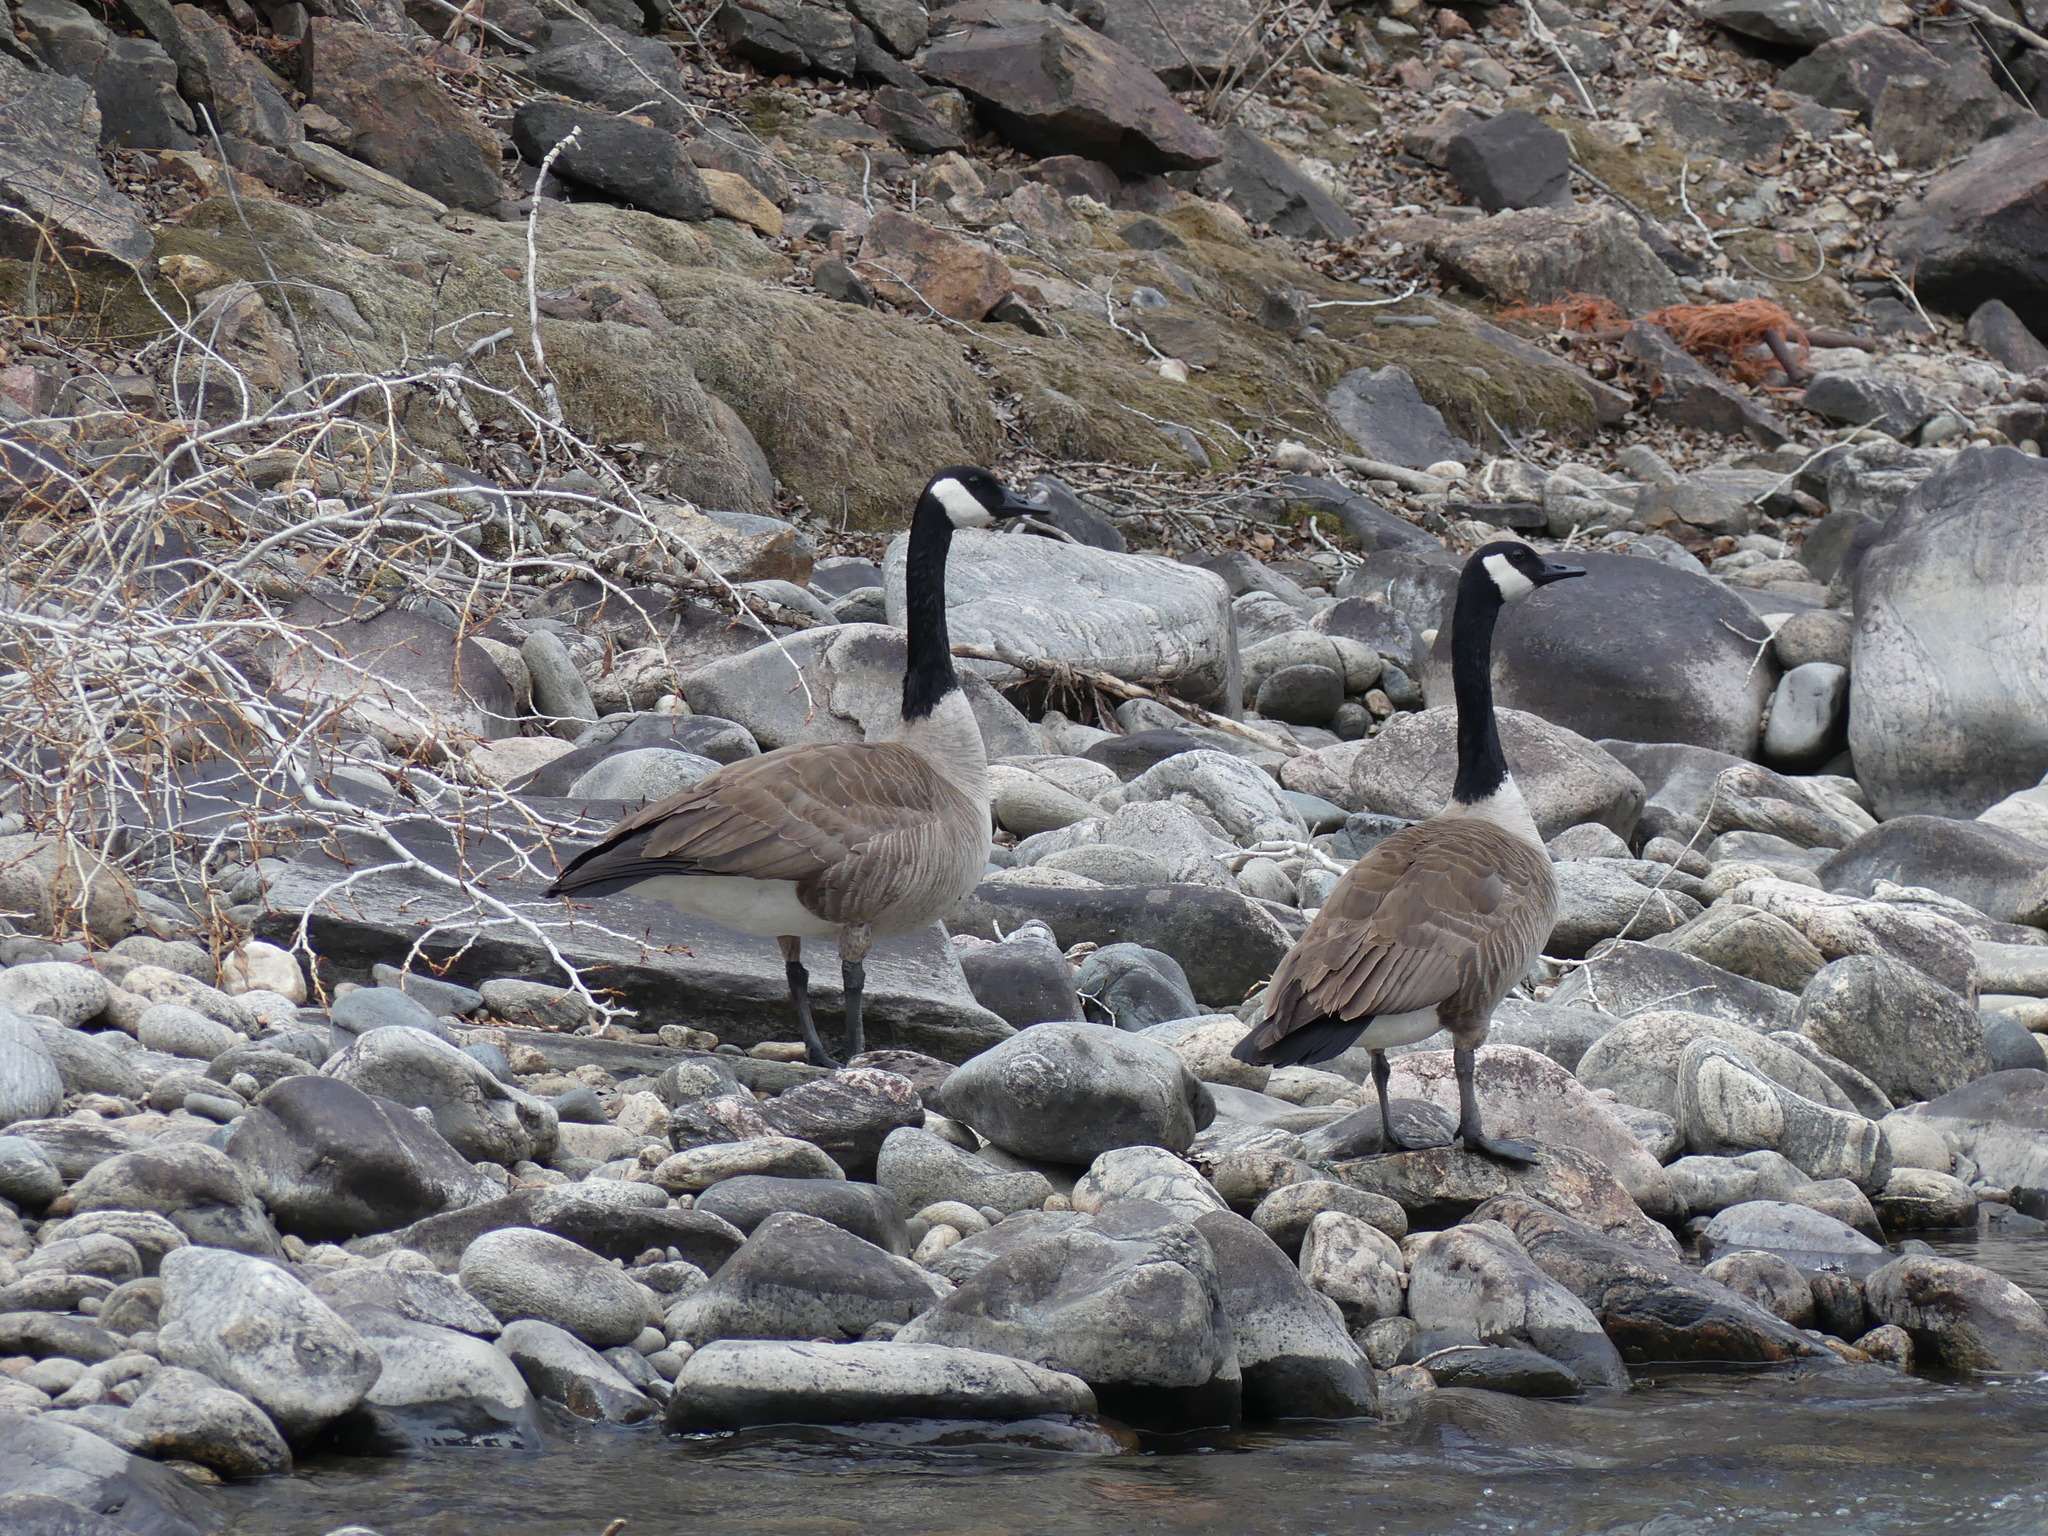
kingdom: Animalia
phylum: Chordata
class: Aves
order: Anseriformes
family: Anatidae
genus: Branta
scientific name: Branta canadensis
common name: Canada goose
